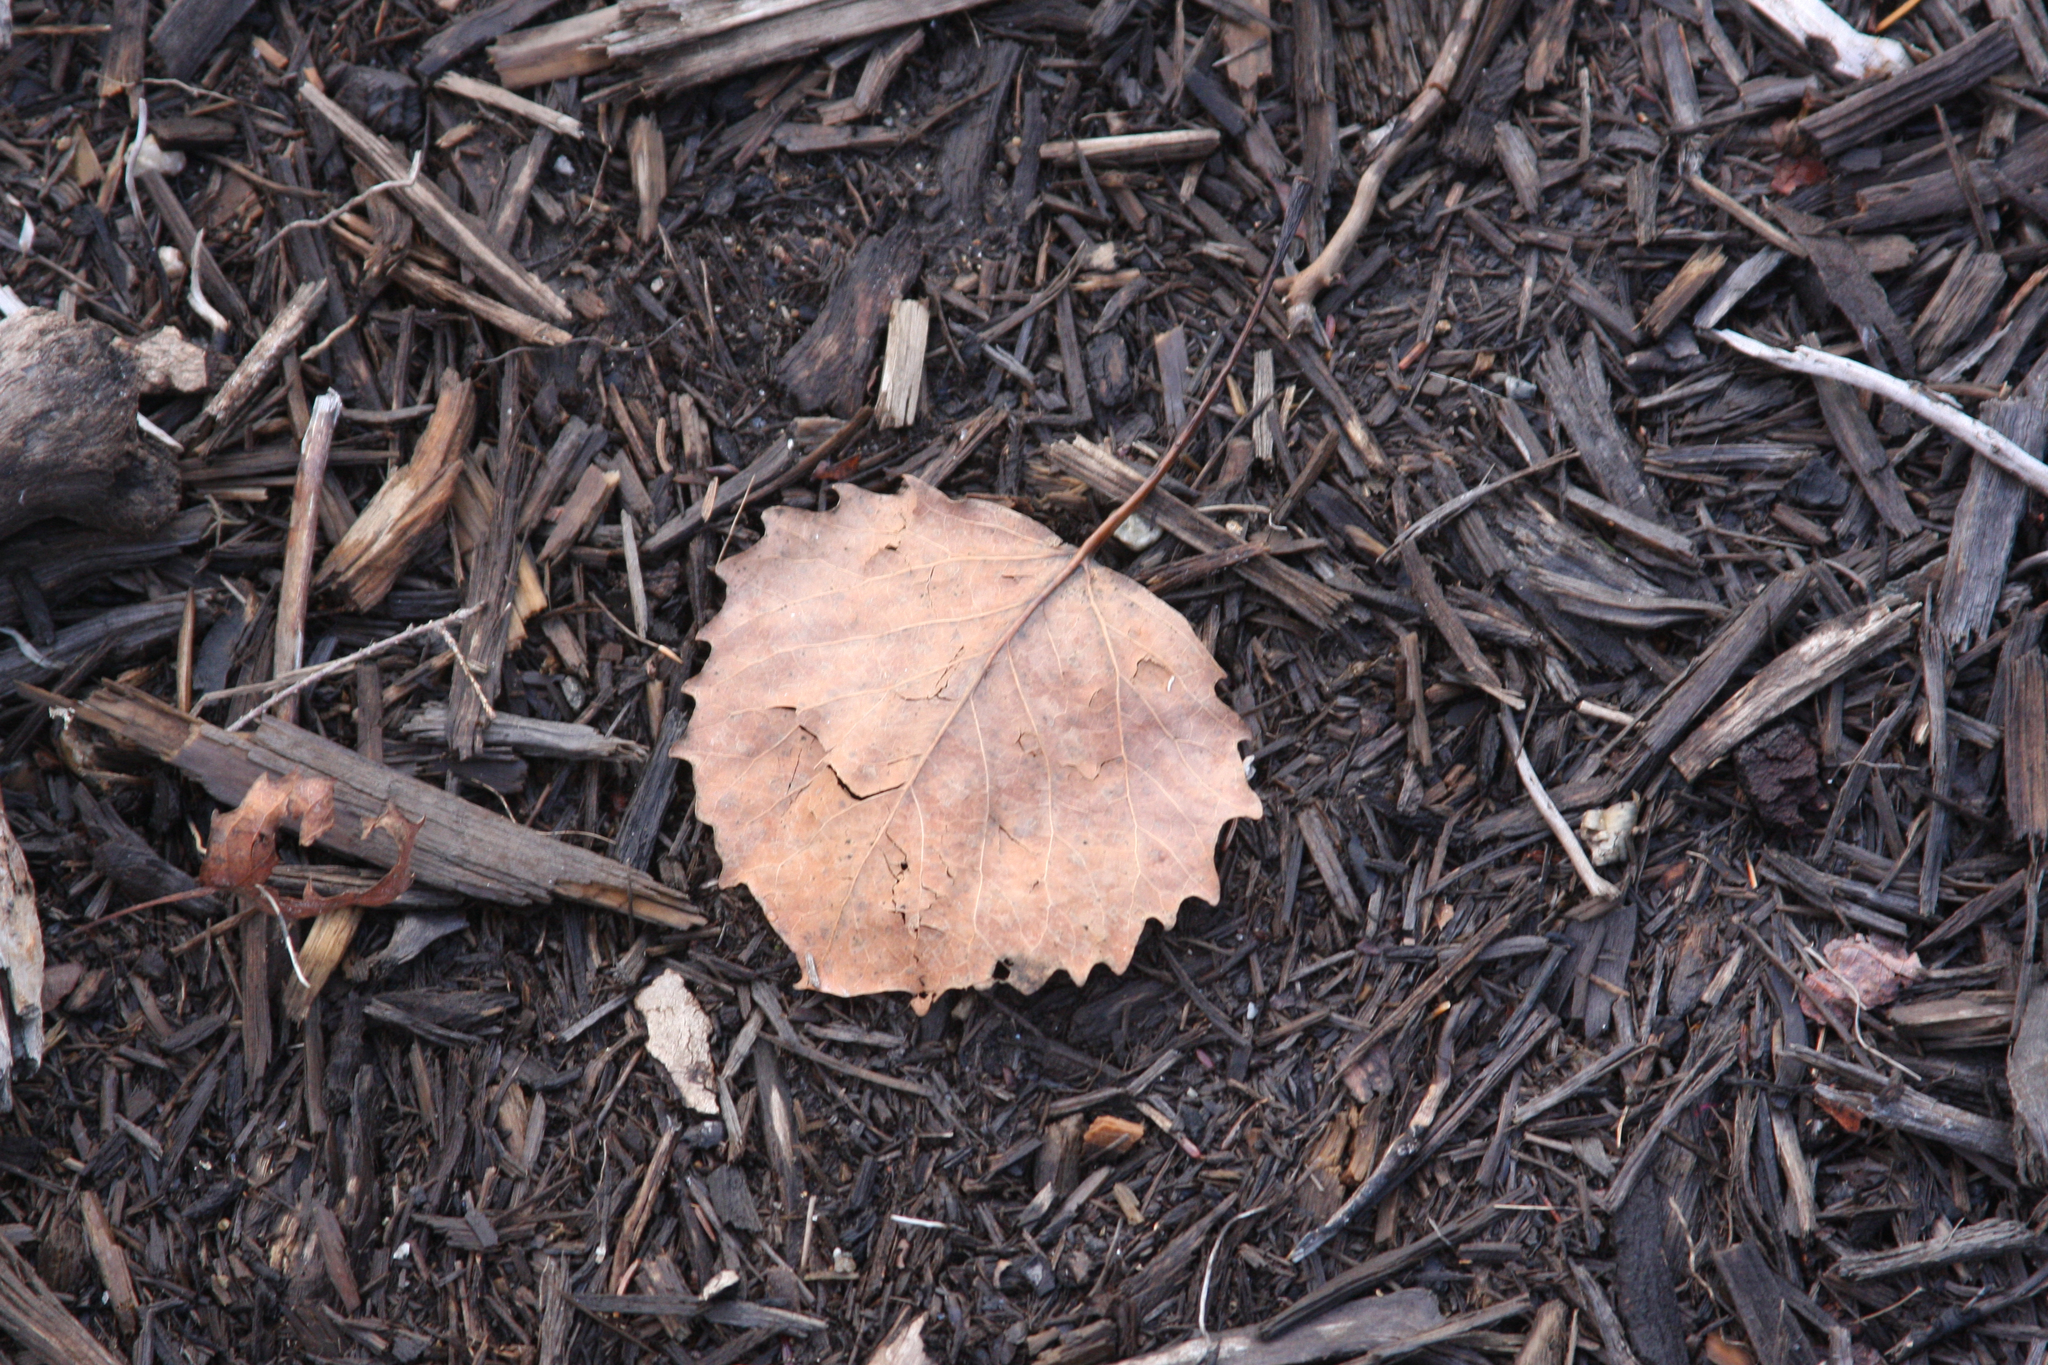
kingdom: Plantae
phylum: Tracheophyta
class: Magnoliopsida
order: Malpighiales
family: Salicaceae
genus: Populus
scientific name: Populus grandidentata
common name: Bigtooth aspen
